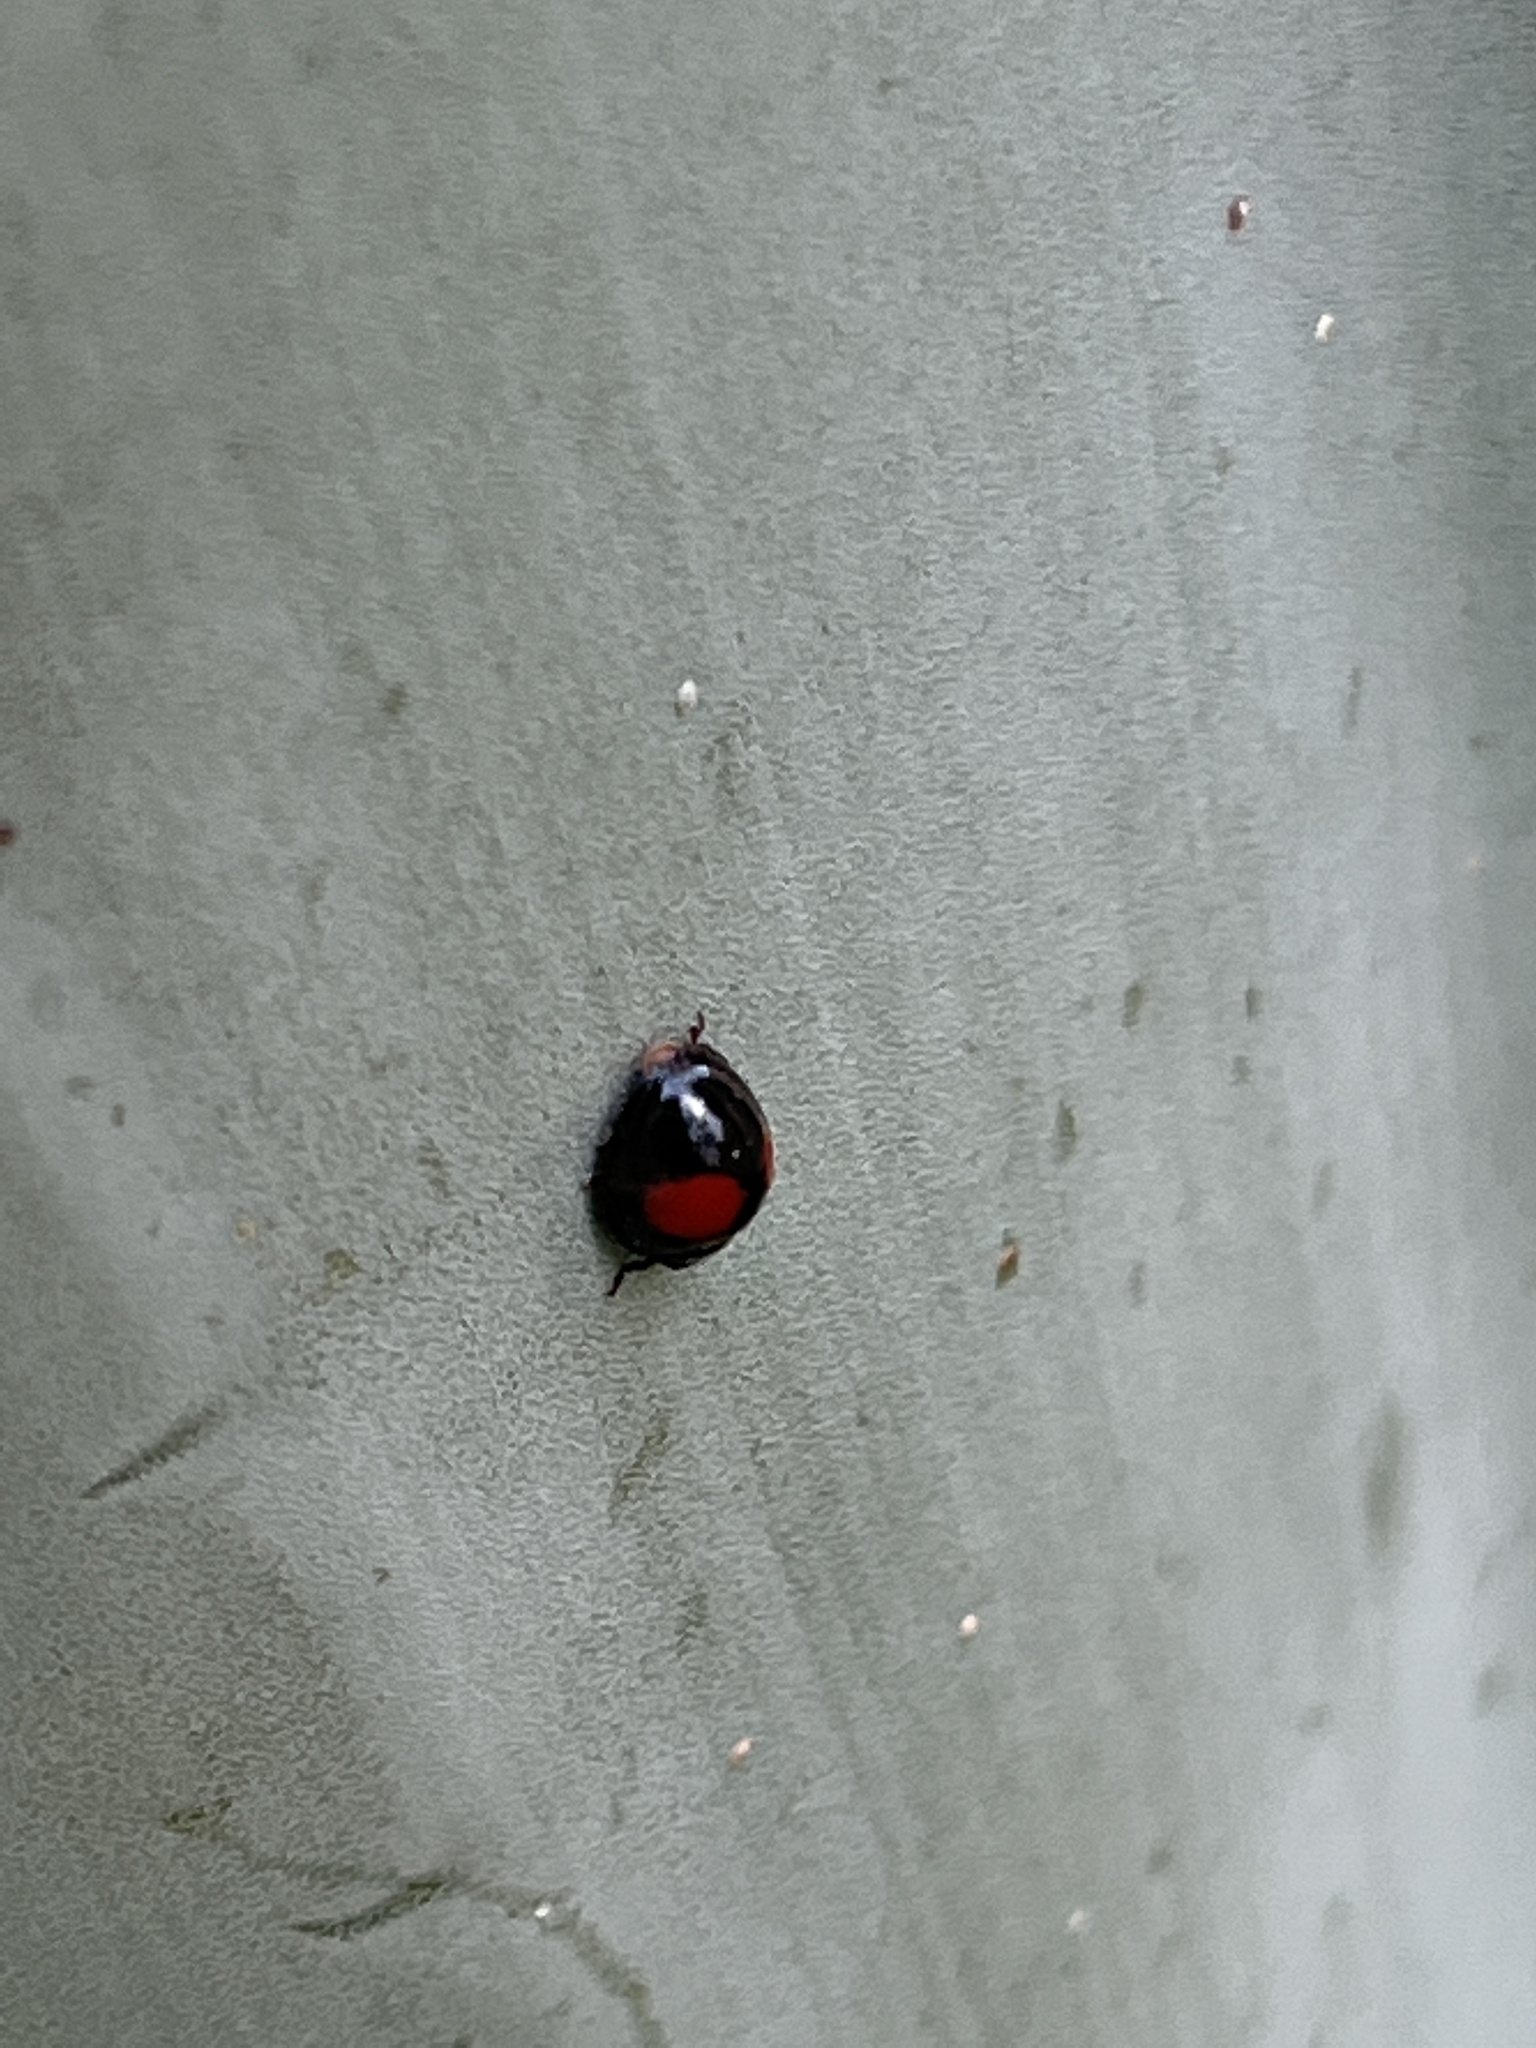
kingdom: Animalia
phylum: Arthropoda
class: Insecta
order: Coleoptera
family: Coccinellidae
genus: Chilocorus
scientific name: Chilocorus cacti
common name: Cactus lady beetle
